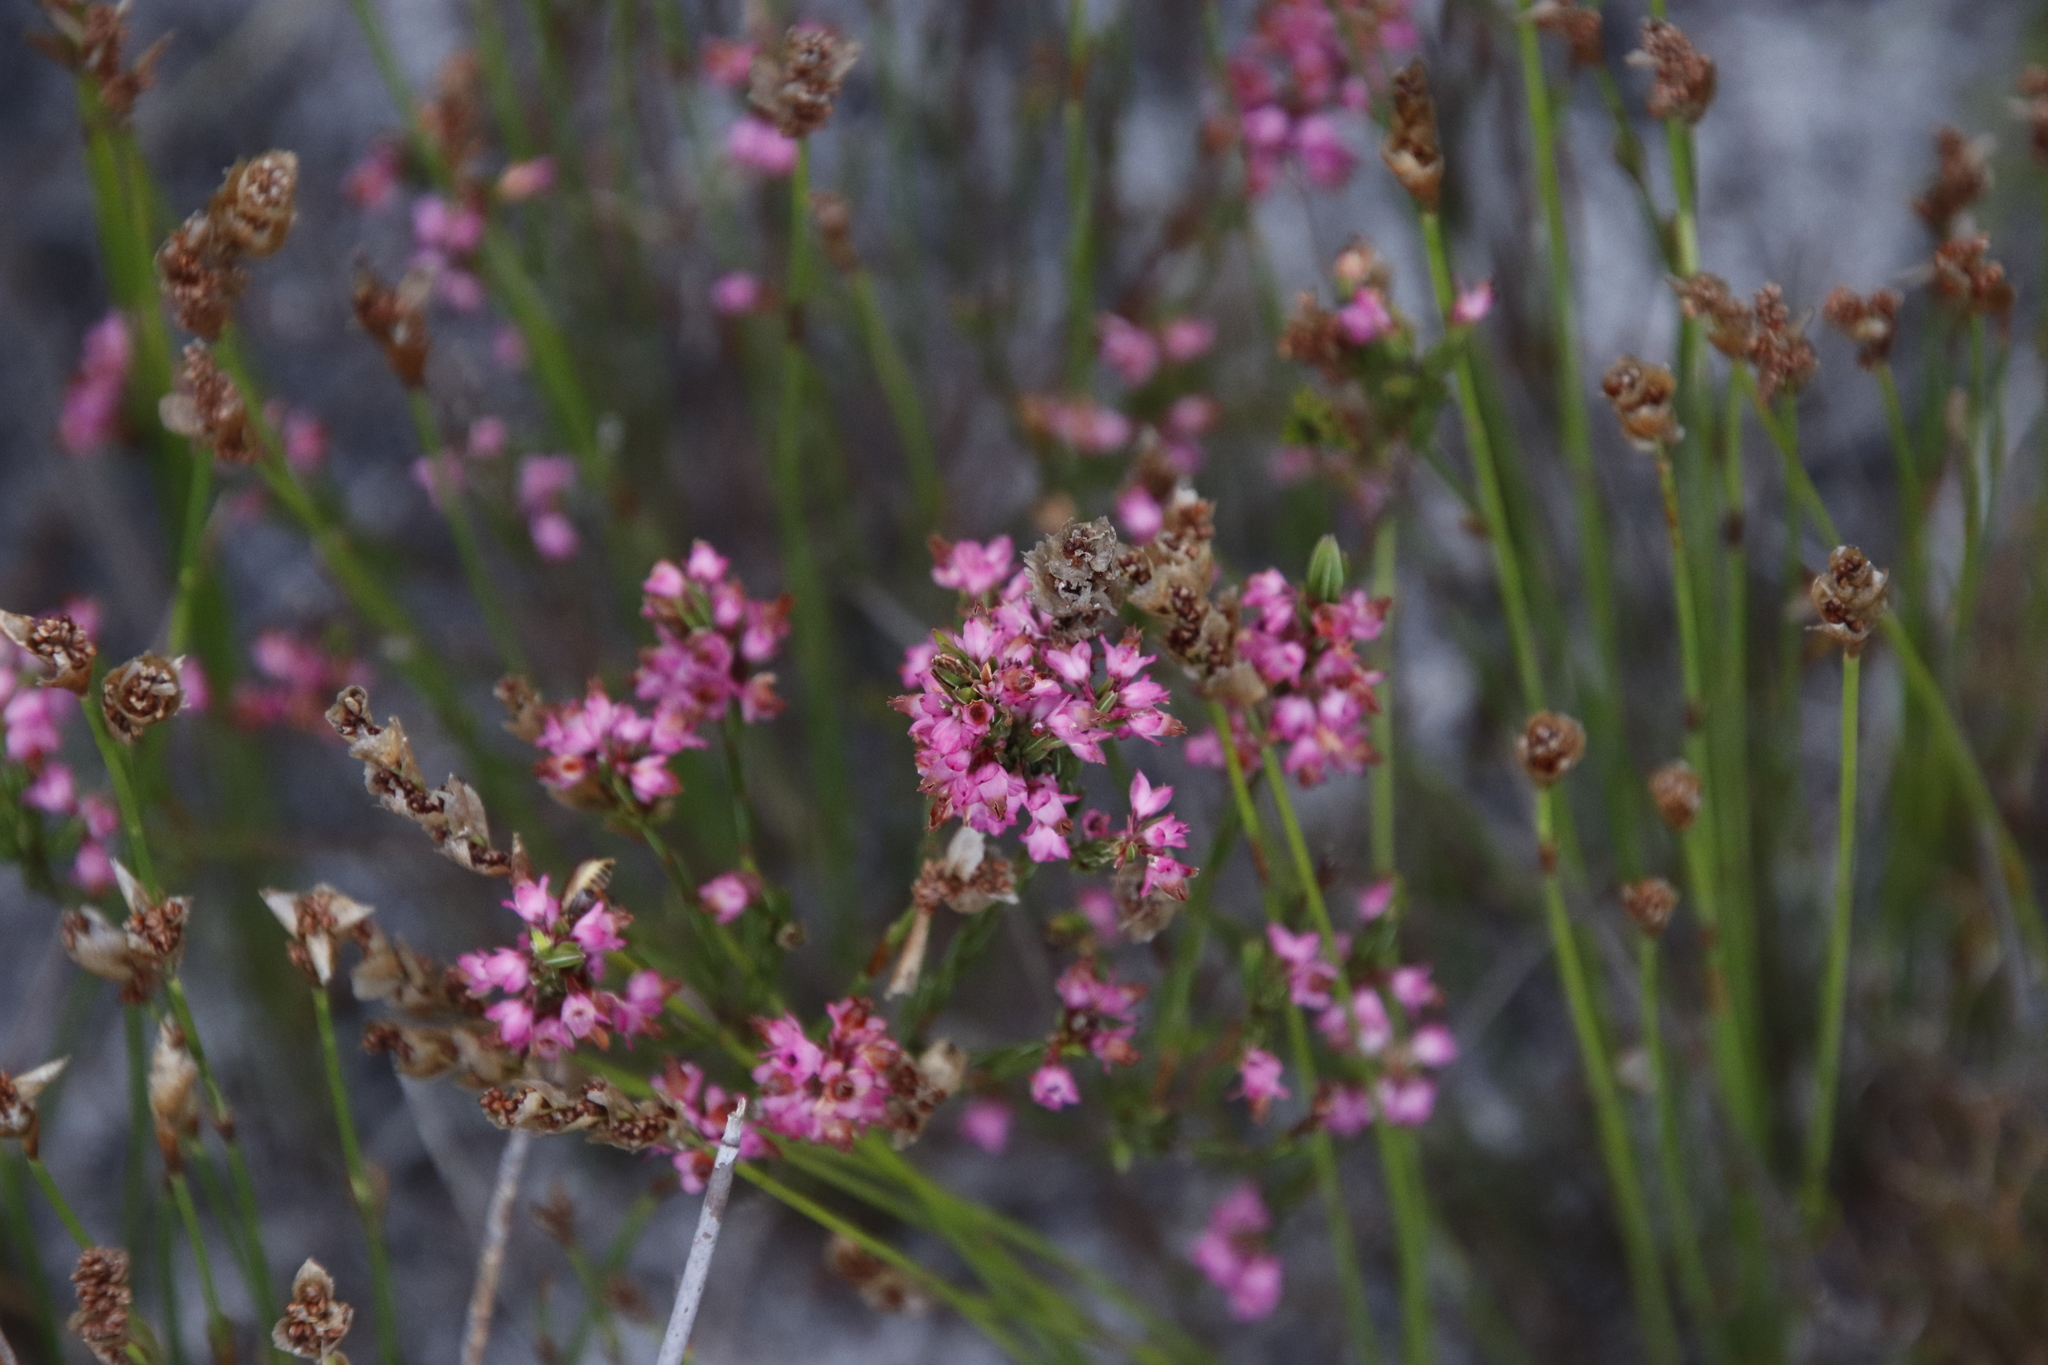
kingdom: Plantae
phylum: Tracheophyta
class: Magnoliopsida
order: Ericales
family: Ericaceae
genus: Erica
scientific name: Erica corifolia
